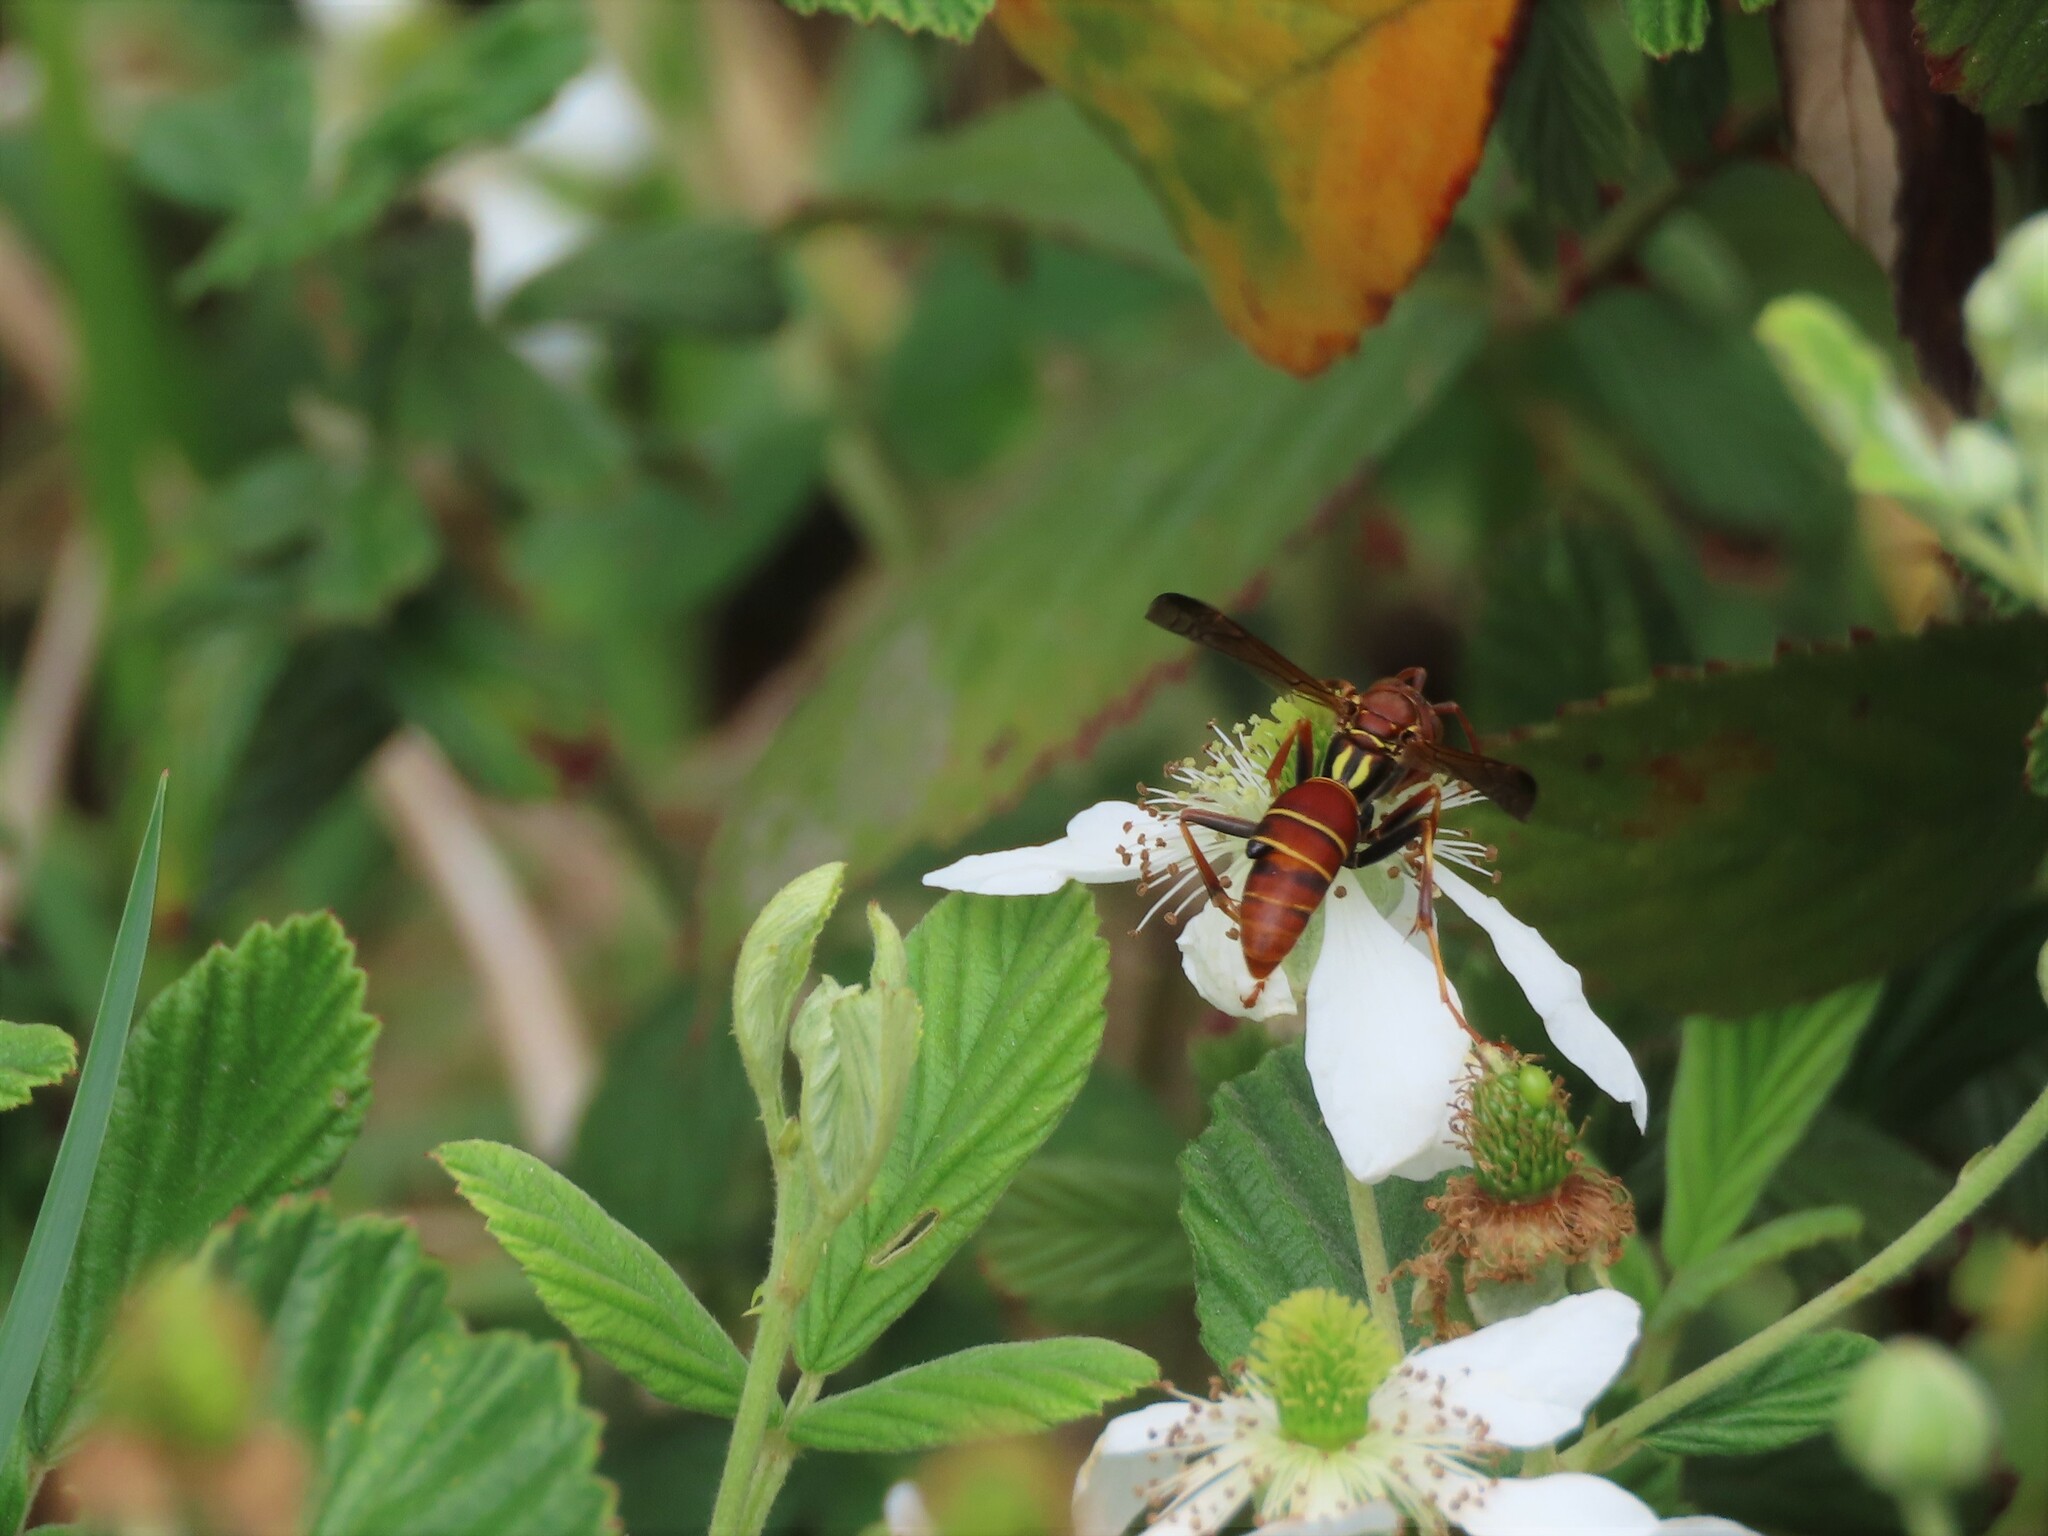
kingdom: Animalia
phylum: Arthropoda
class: Insecta
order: Hymenoptera
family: Eumenidae
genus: Polistes
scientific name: Polistes dorsalis
